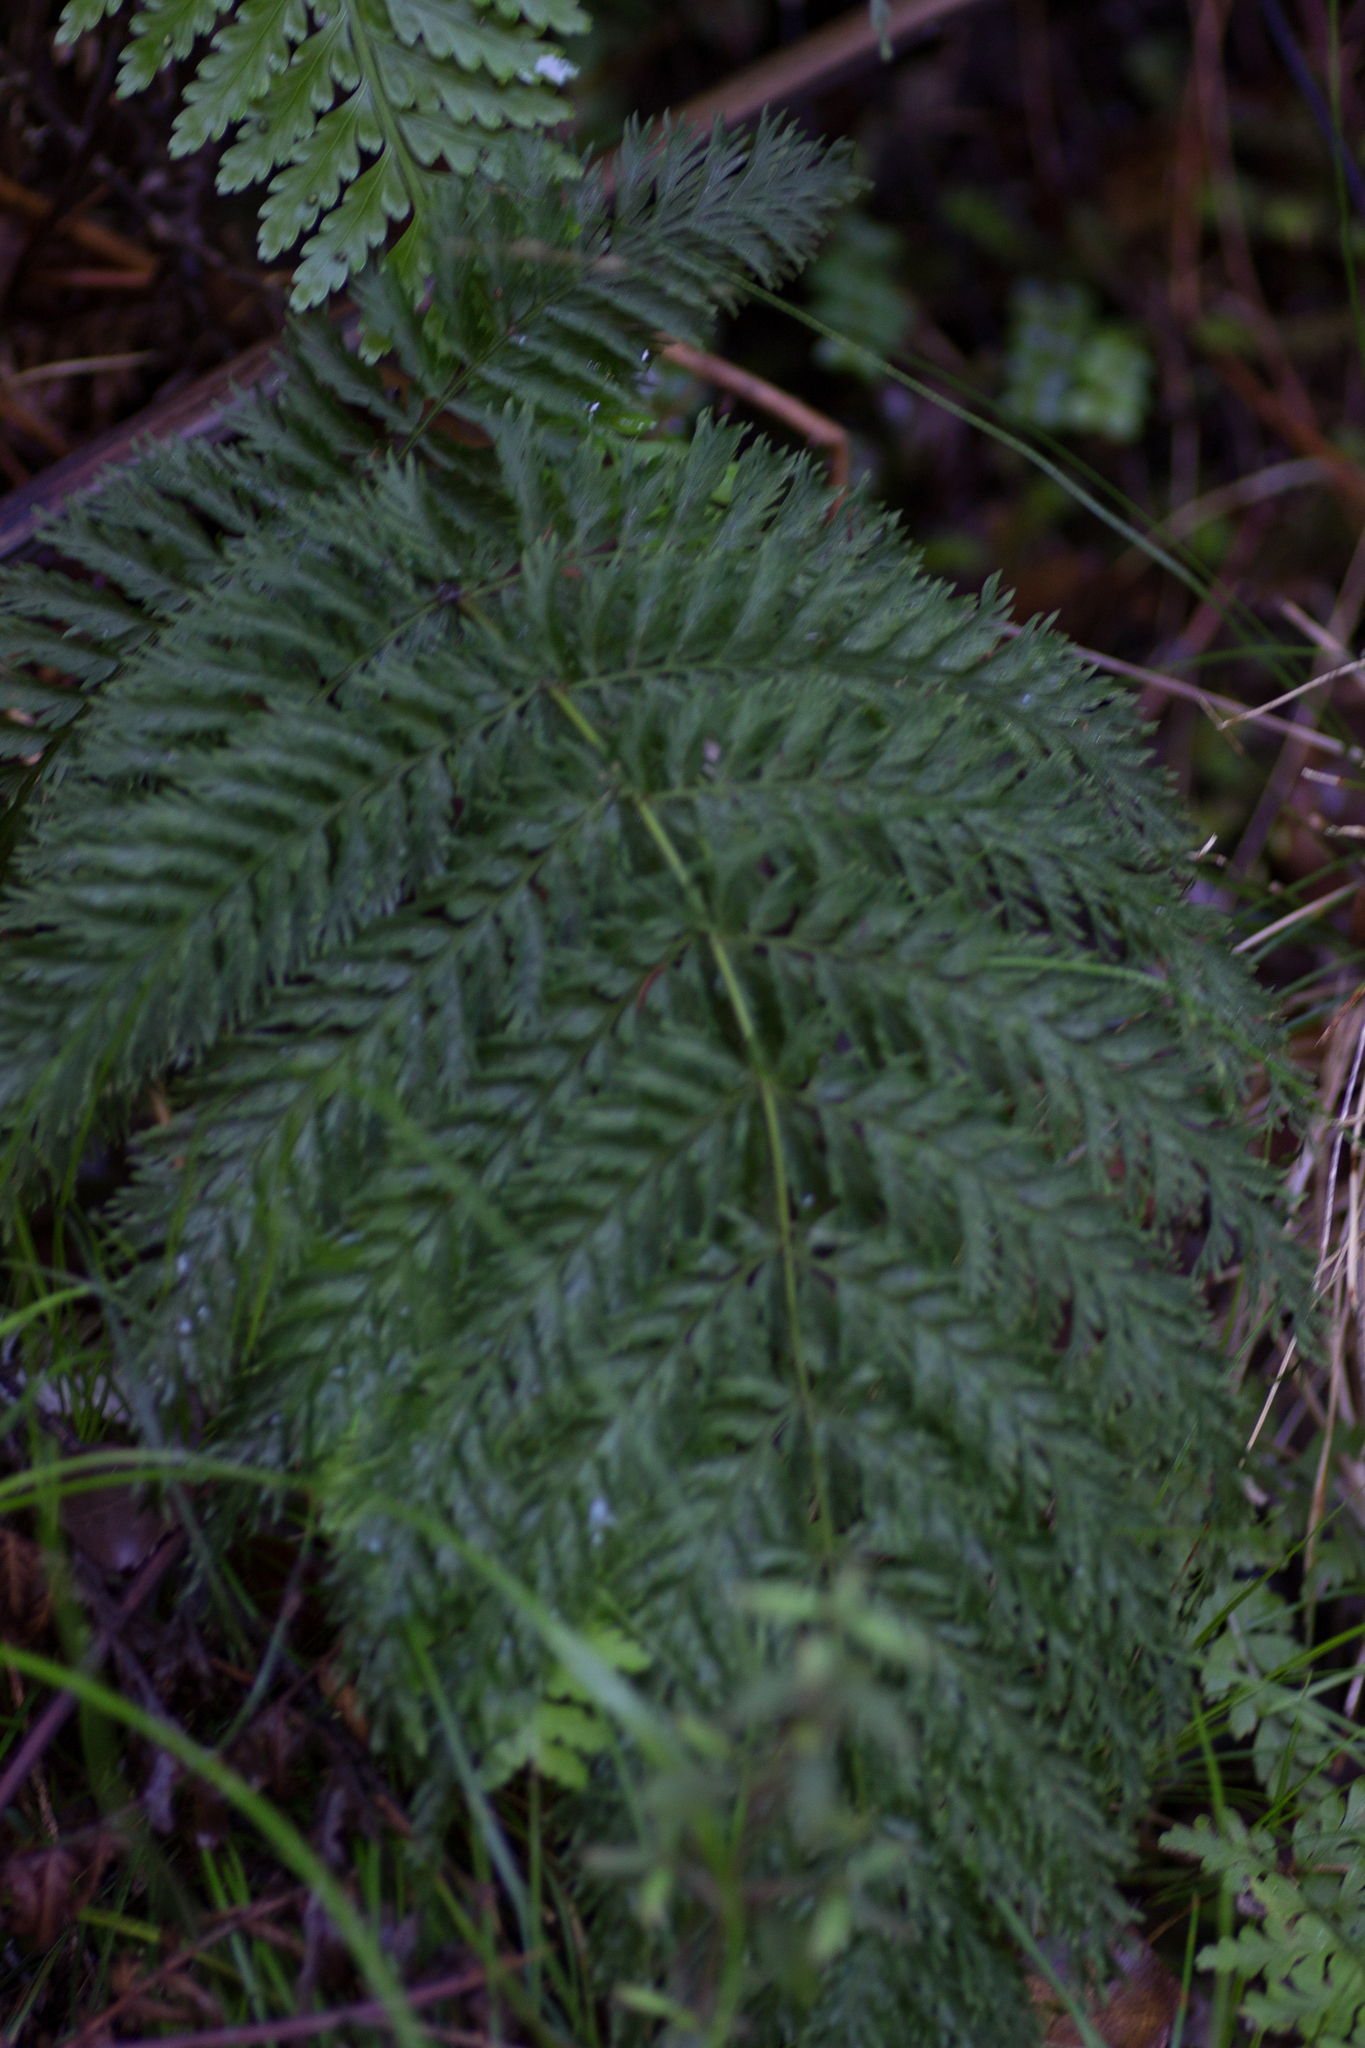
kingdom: Plantae
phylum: Tracheophyta
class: Polypodiopsida
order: Osmundales
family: Osmundaceae
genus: Leptopteris
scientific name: Leptopteris hymenophylloides
